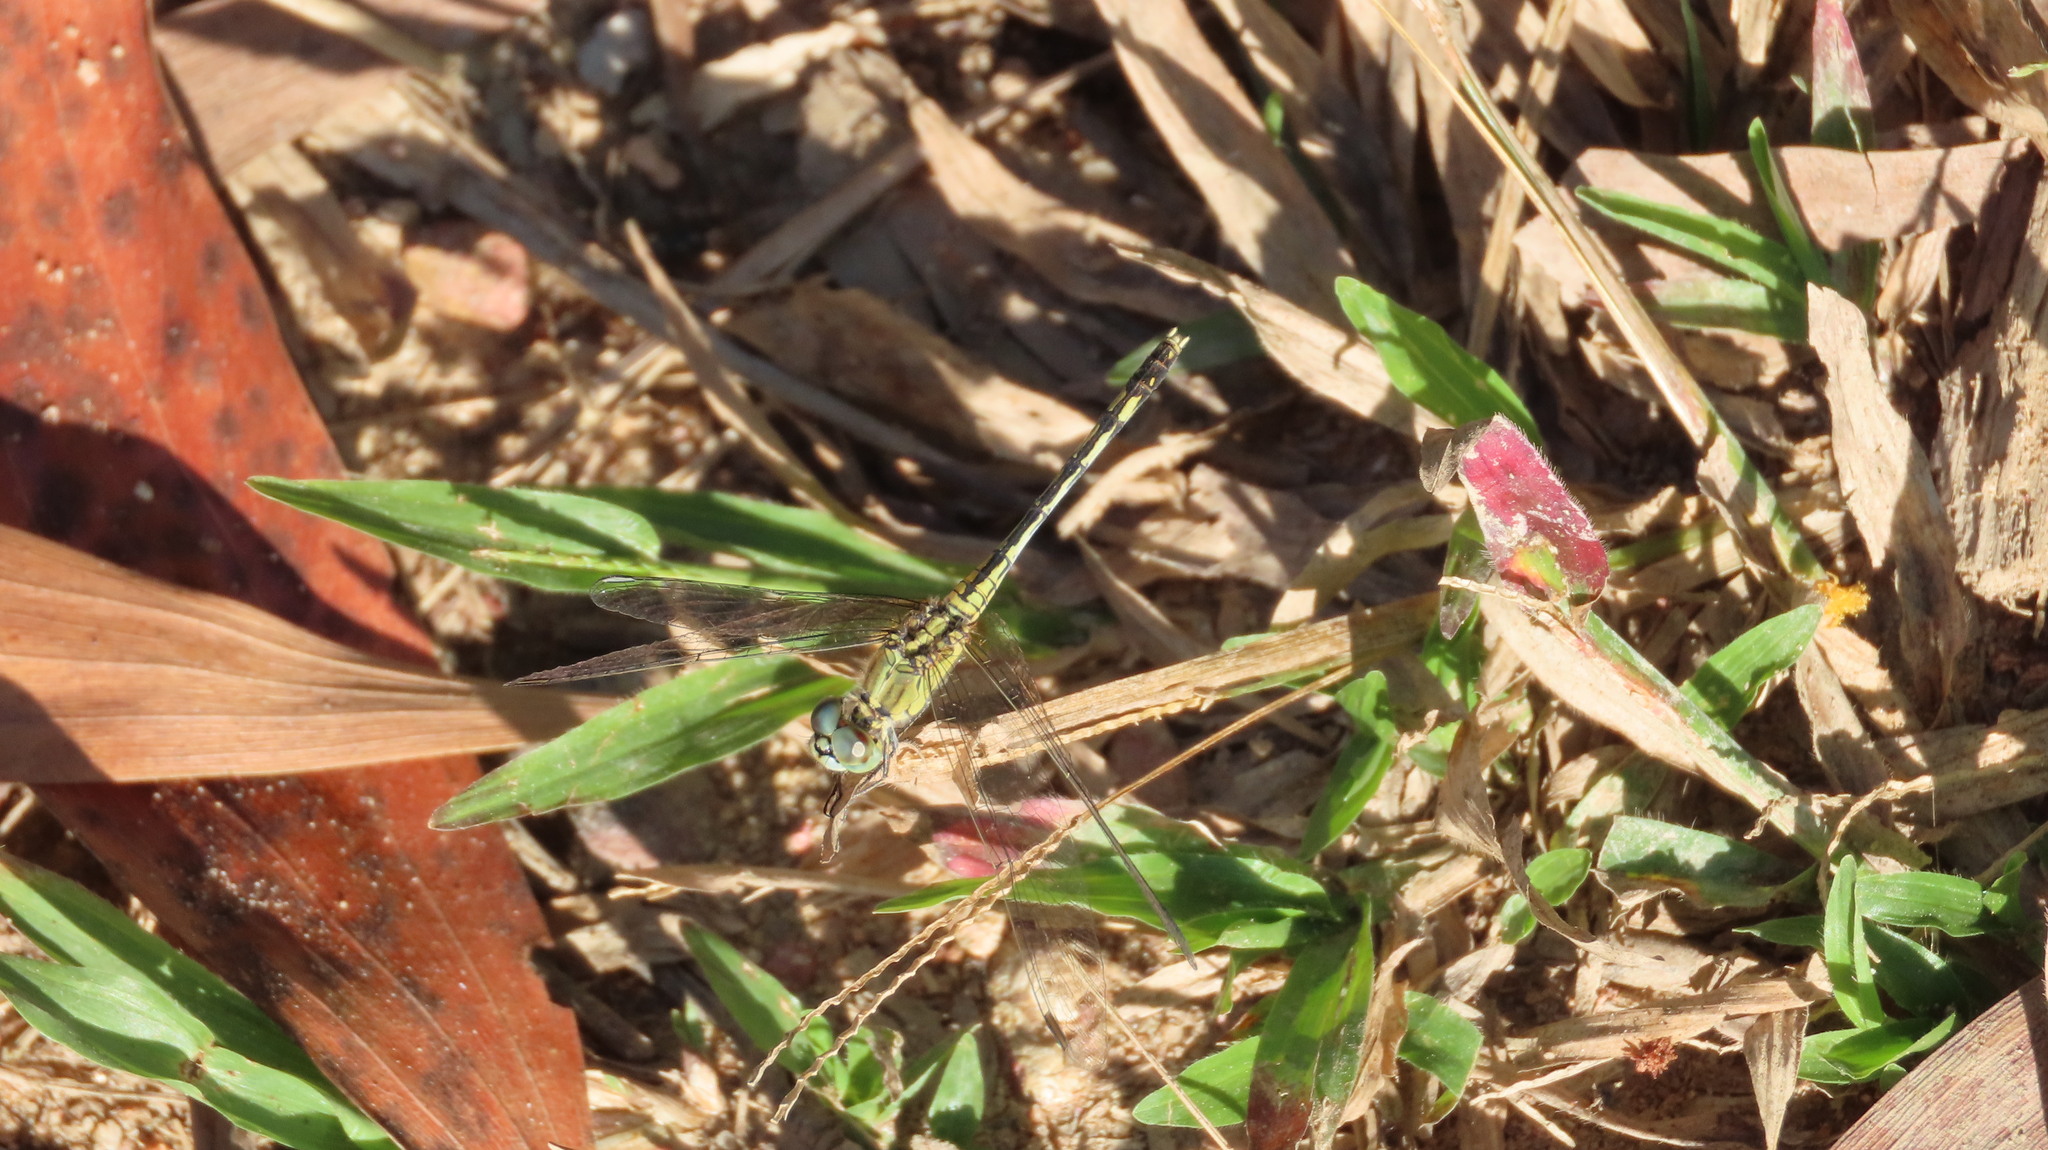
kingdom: Animalia
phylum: Arthropoda
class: Insecta
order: Odonata
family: Libellulidae
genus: Diplacodes
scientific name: Diplacodes trivialis
